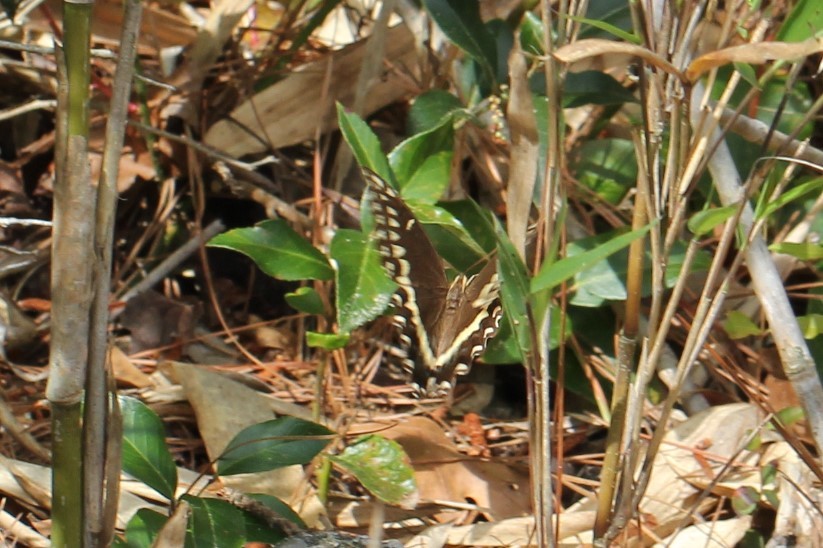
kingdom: Animalia
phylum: Arthropoda
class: Insecta
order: Lepidoptera
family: Papilionidae
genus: Papilio
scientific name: Papilio palamedes
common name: Palamedes swallowtail
